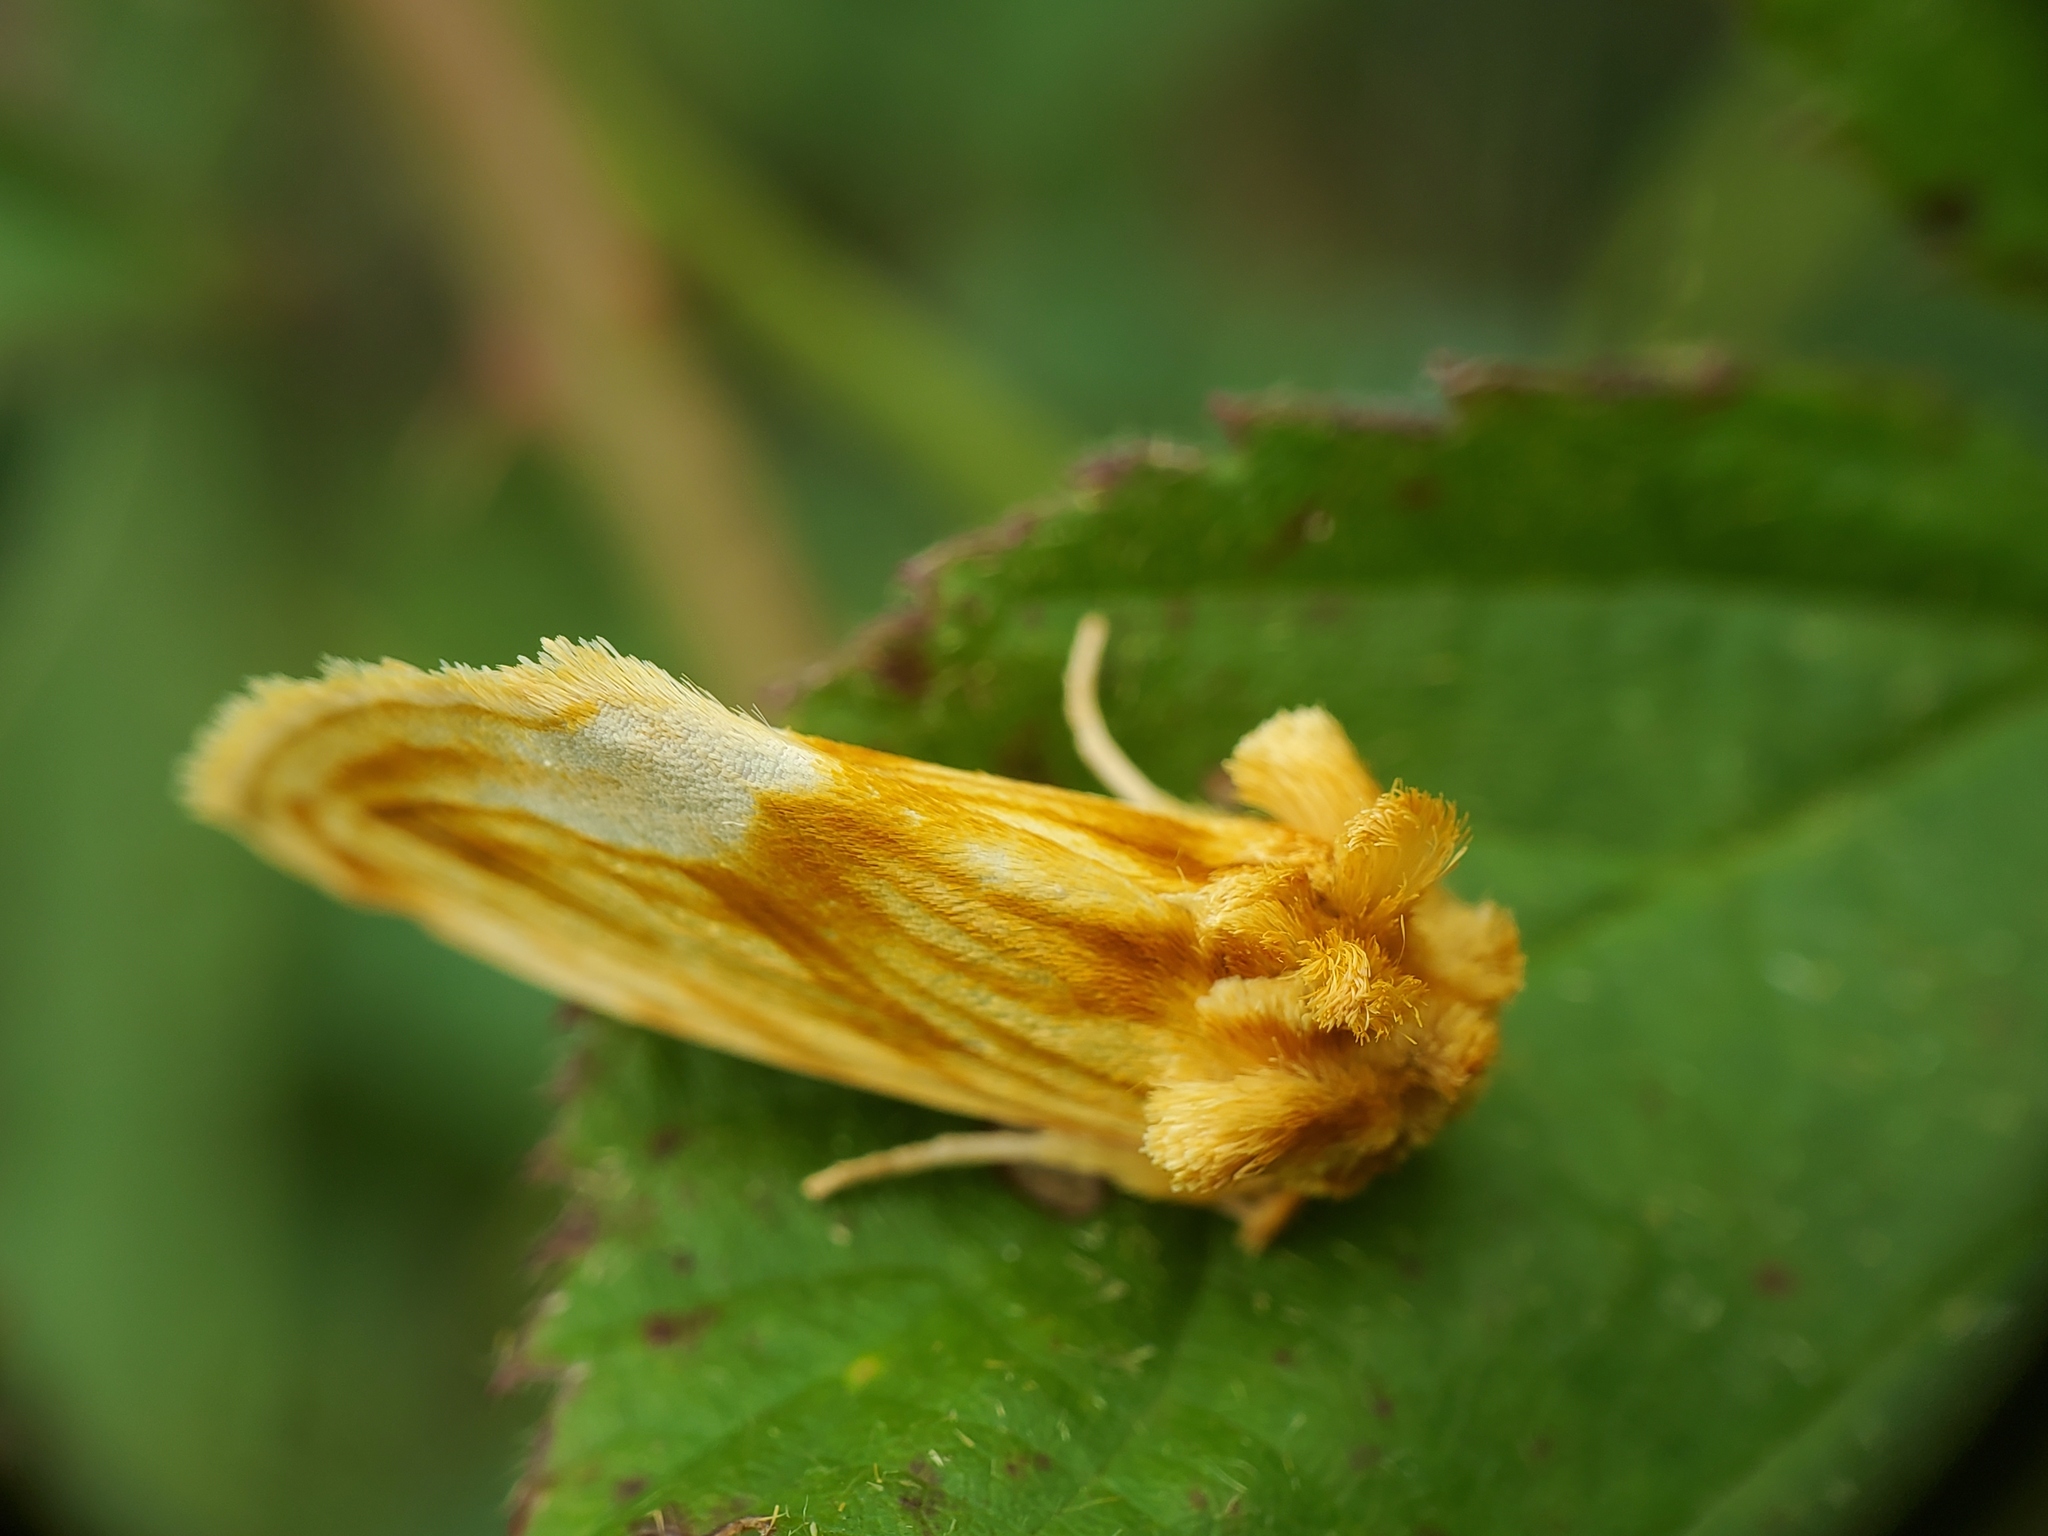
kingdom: Animalia
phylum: Arthropoda
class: Insecta
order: Lepidoptera
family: Noctuidae
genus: Cirrhophanus
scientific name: Cirrhophanus triangulifer
